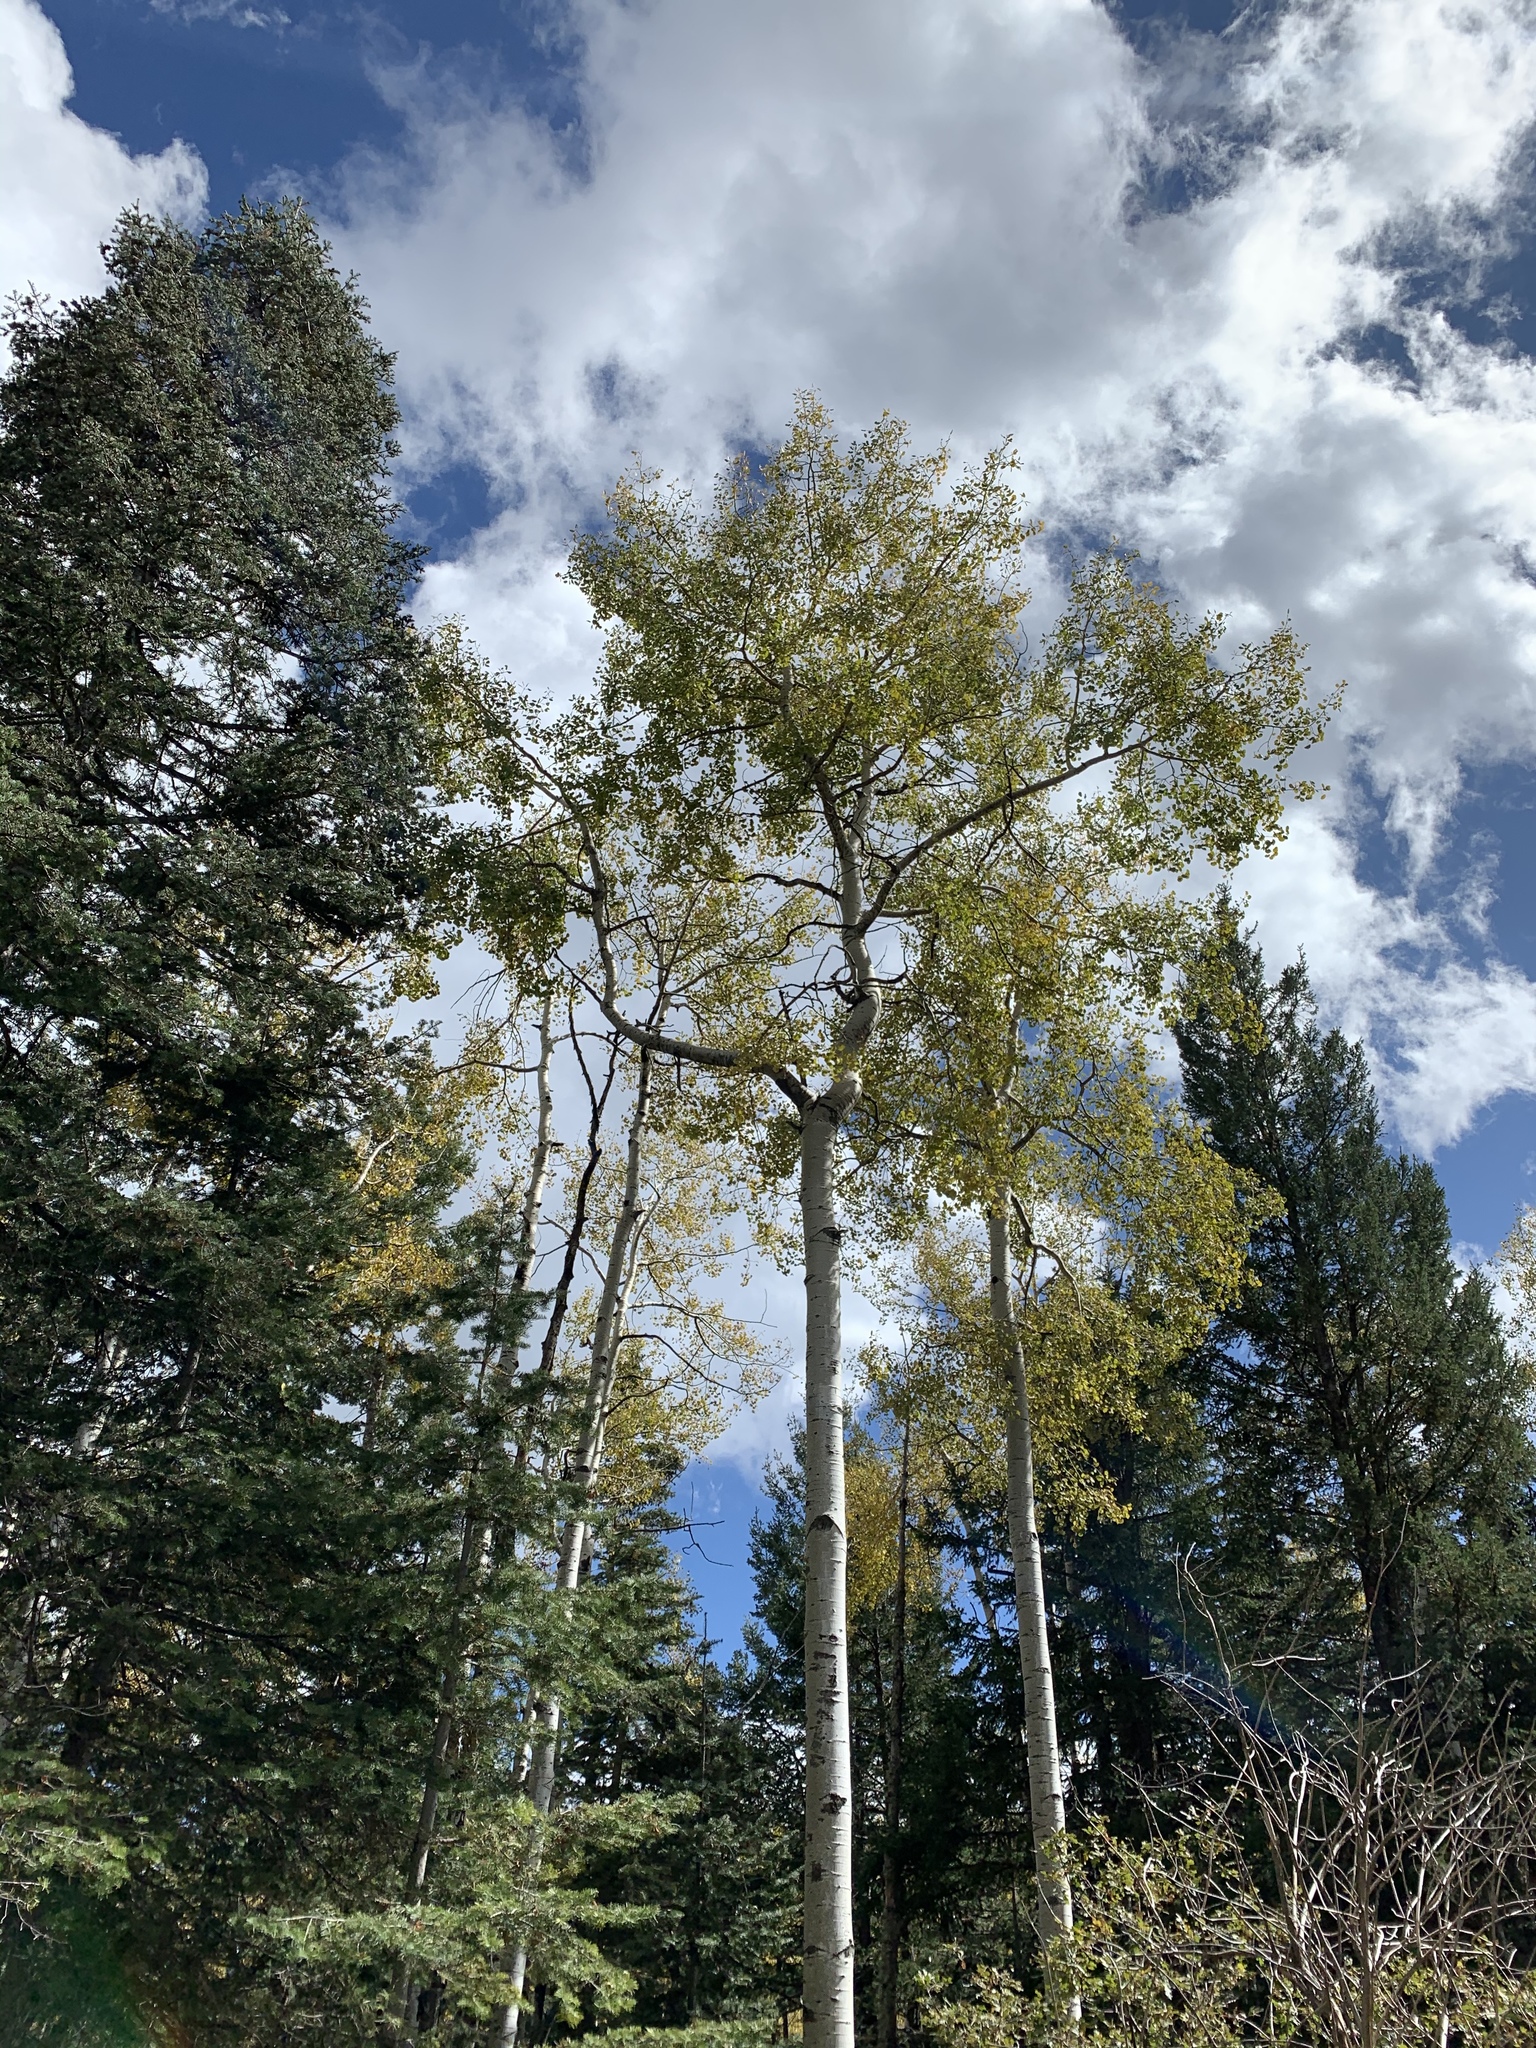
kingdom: Plantae
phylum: Tracheophyta
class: Magnoliopsida
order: Malpighiales
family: Salicaceae
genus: Populus
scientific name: Populus tremuloides
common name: Quaking aspen
